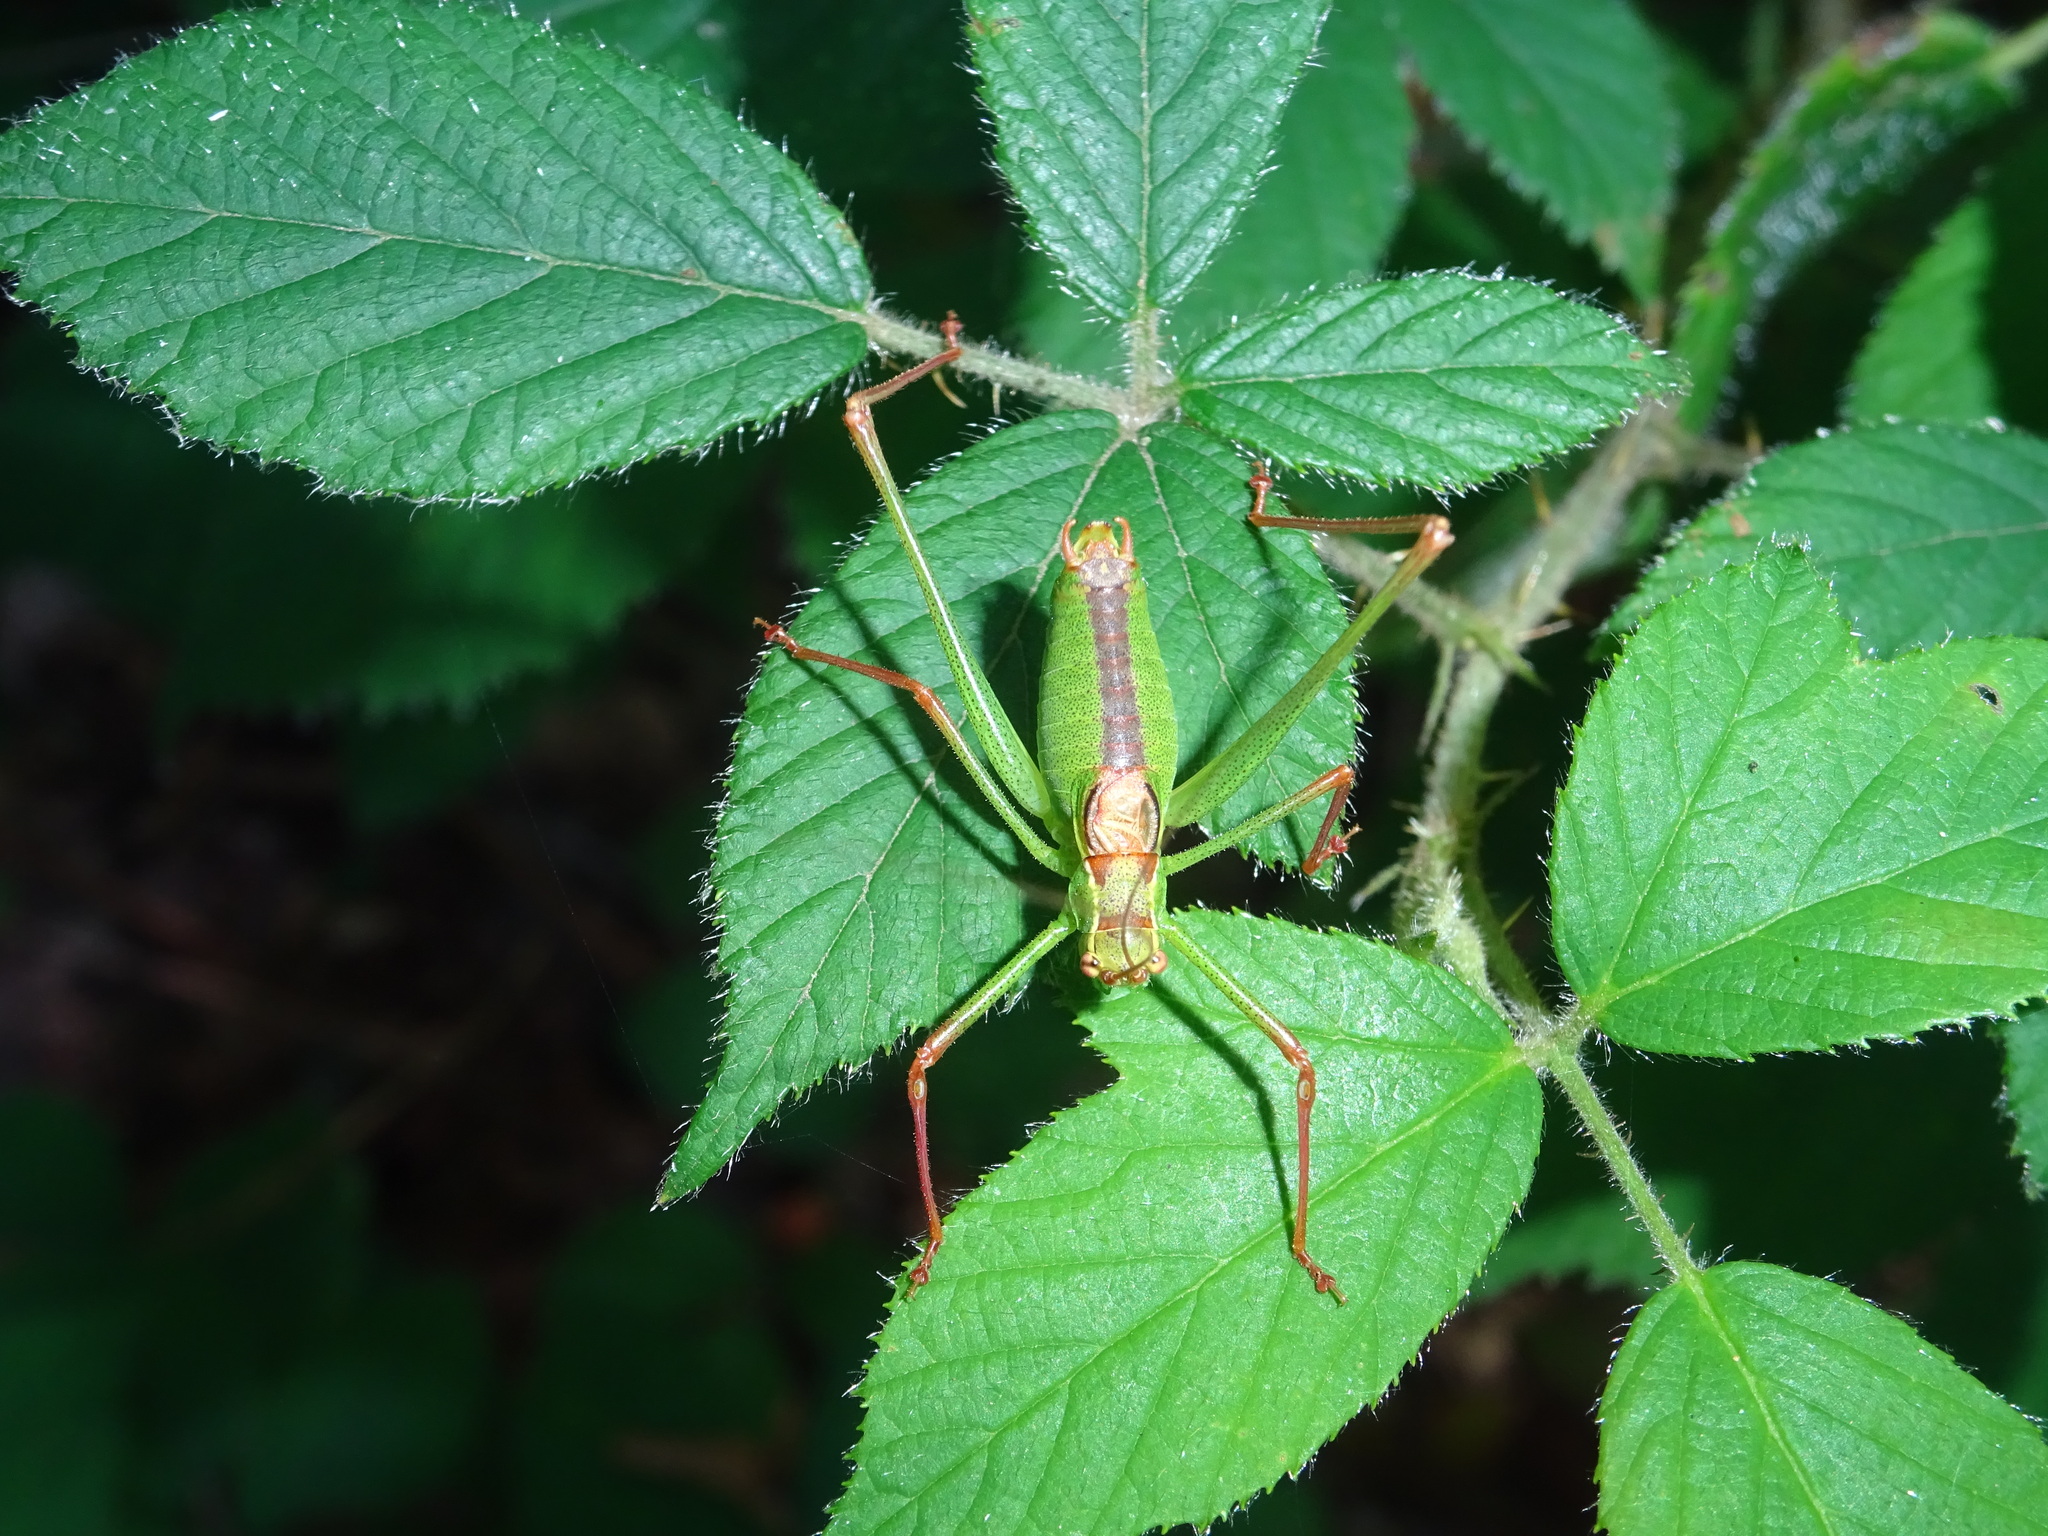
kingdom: Animalia
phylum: Arthropoda
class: Insecta
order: Orthoptera
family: Tettigoniidae
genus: Leptophyes
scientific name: Leptophyes punctatissima
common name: Speckled bush-cricket
